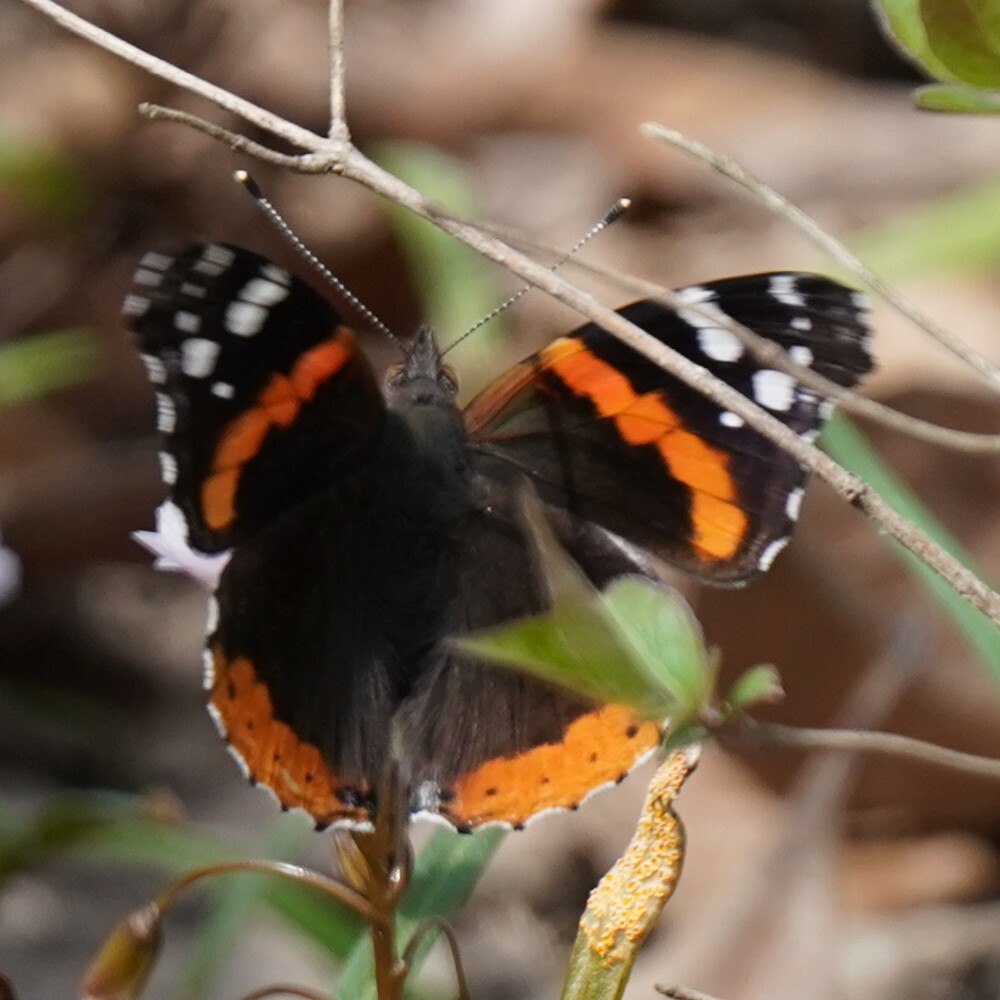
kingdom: Animalia
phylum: Arthropoda
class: Insecta
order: Lepidoptera
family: Nymphalidae
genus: Vanessa
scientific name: Vanessa atalanta
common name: Red admiral
